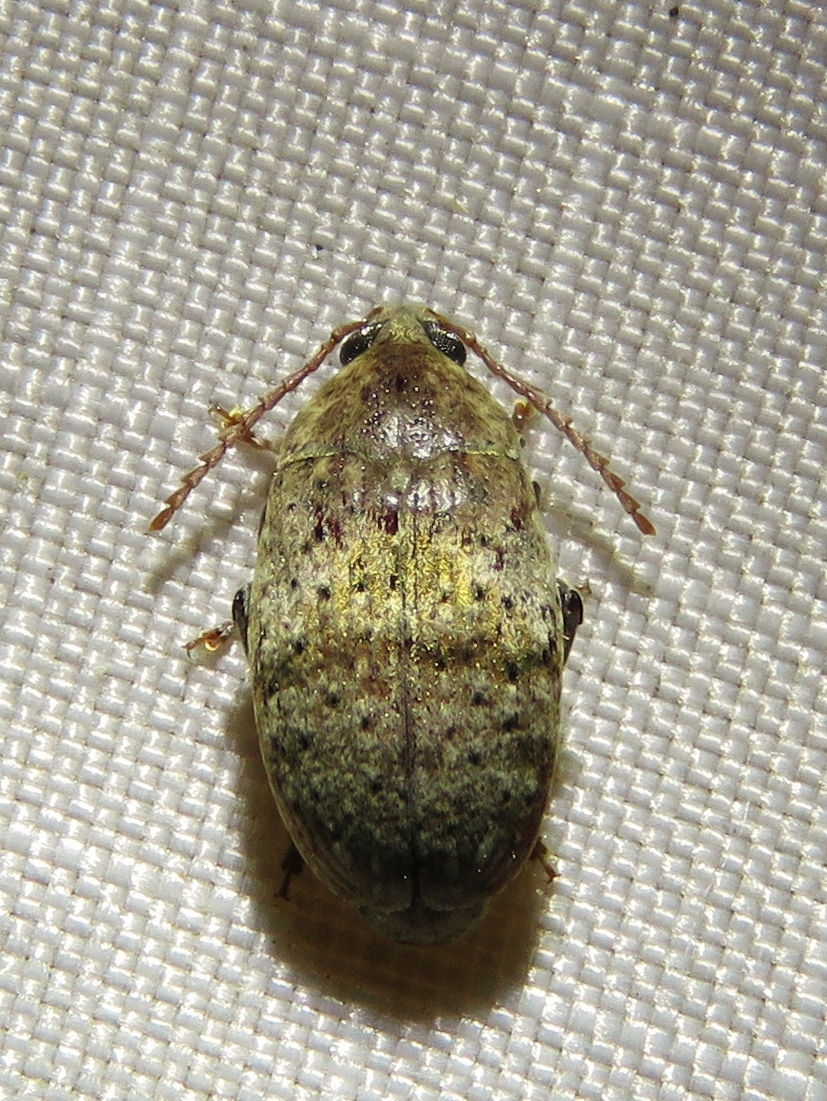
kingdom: Animalia
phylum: Arthropoda
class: Insecta
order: Coleoptera
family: Chrysomelidae
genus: Amblycerus
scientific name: Amblycerus robiniae
